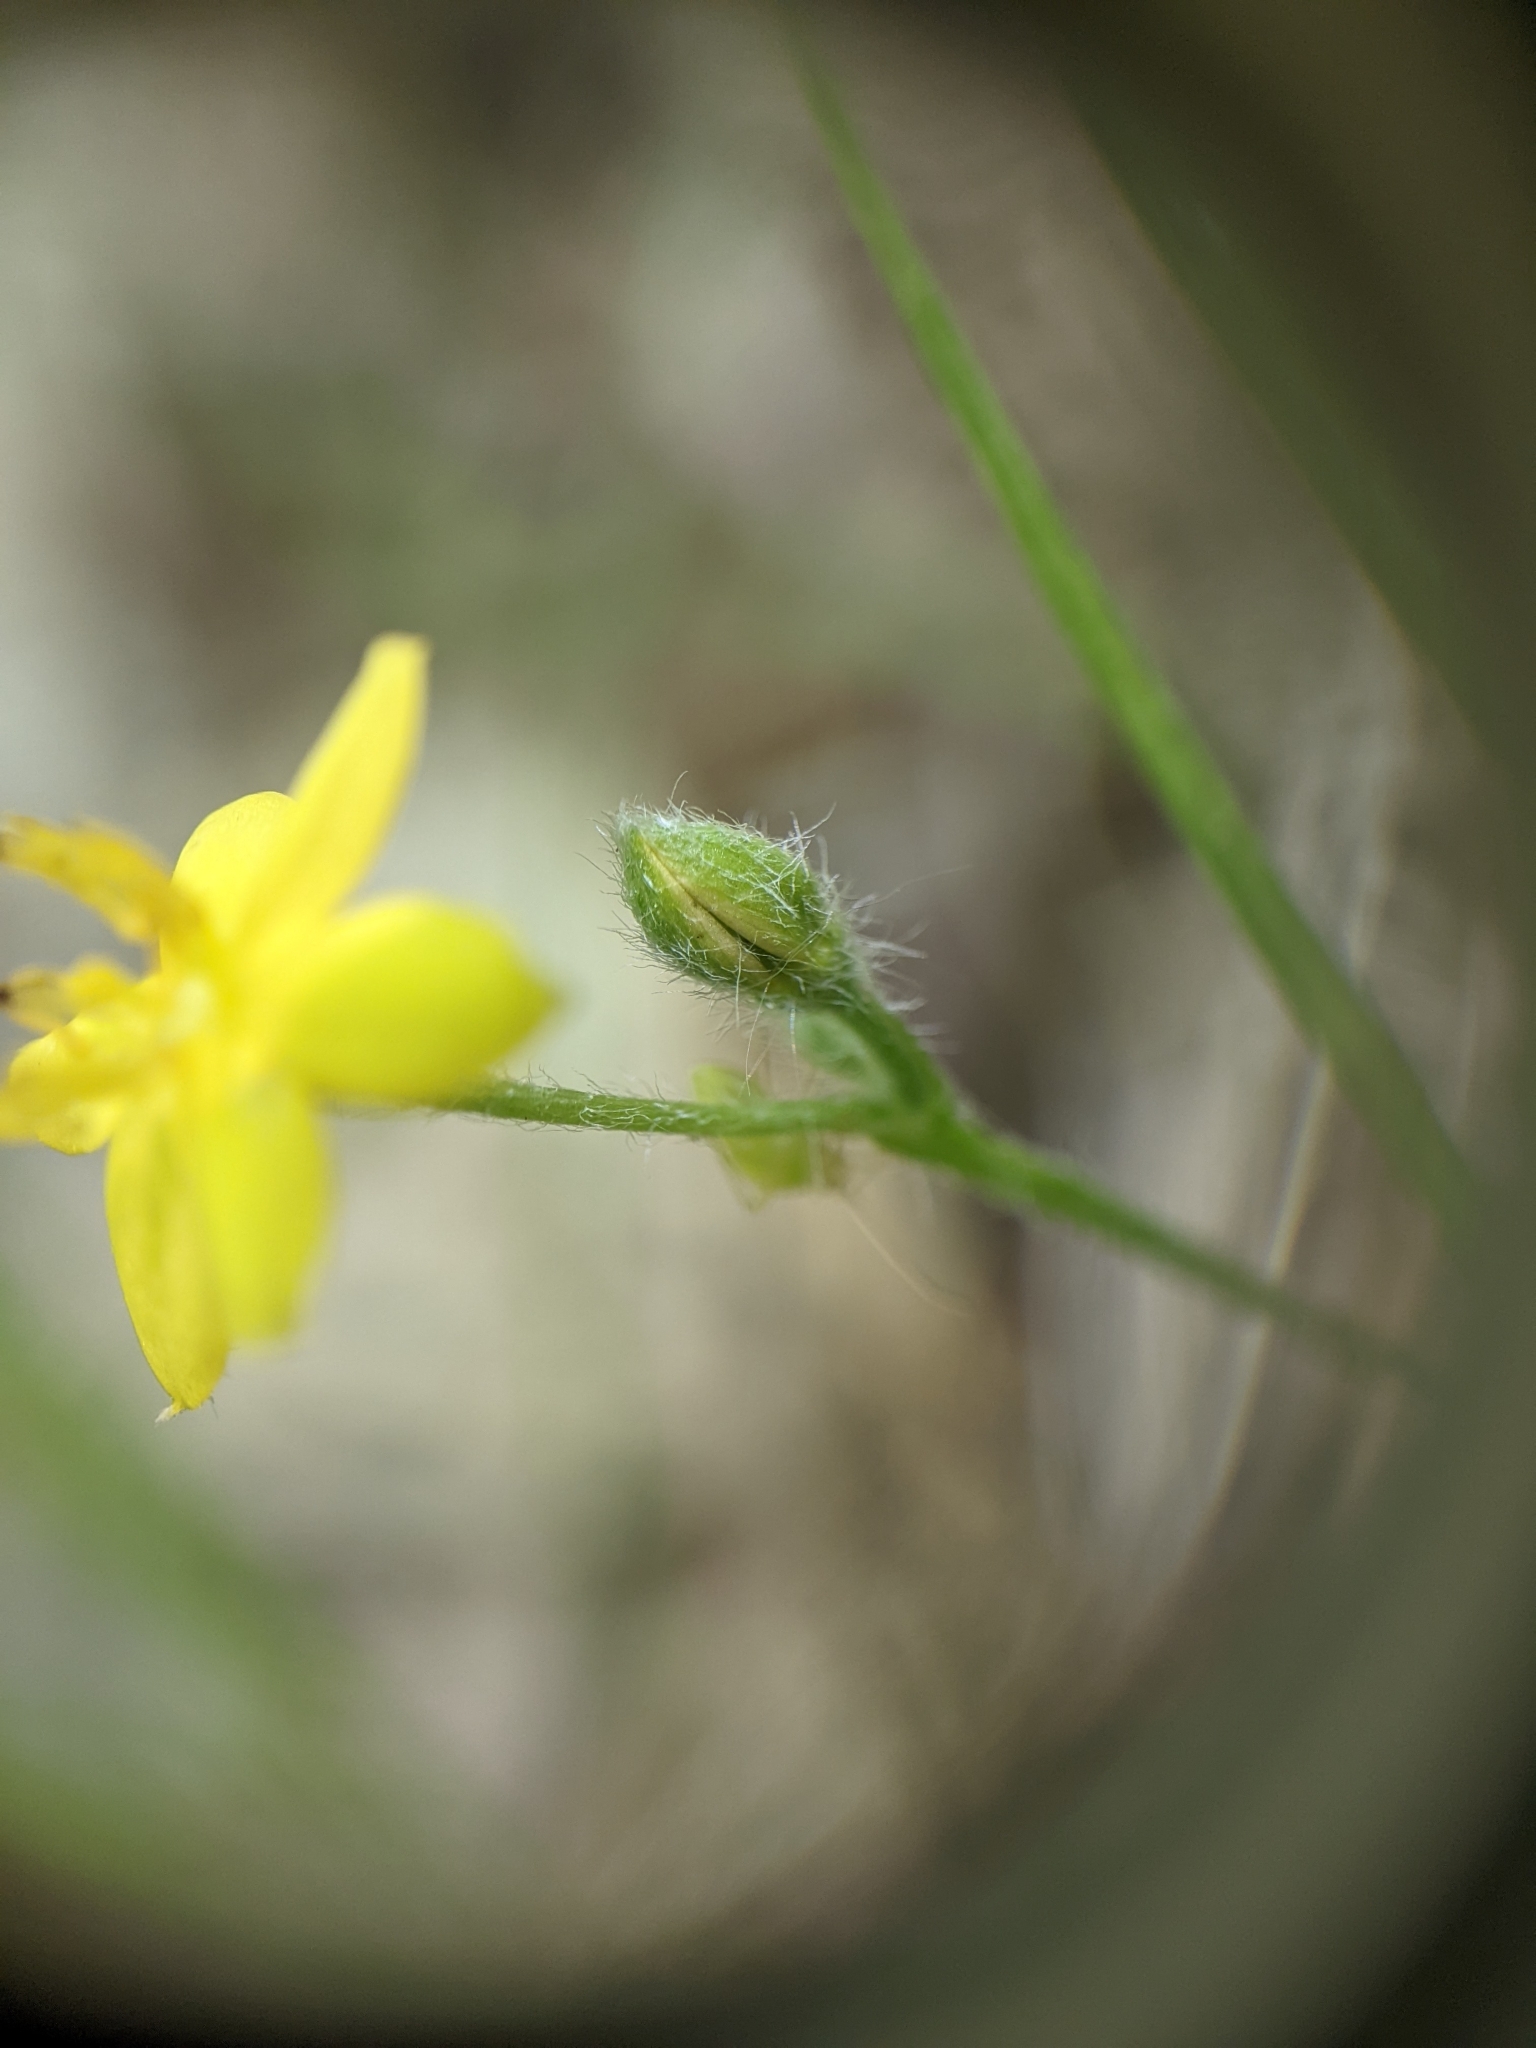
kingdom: Plantae
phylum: Tracheophyta
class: Liliopsida
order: Asparagales
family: Hypoxidaceae
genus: Hypoxis
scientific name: Hypoxis hirsuta
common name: Common goldstar
